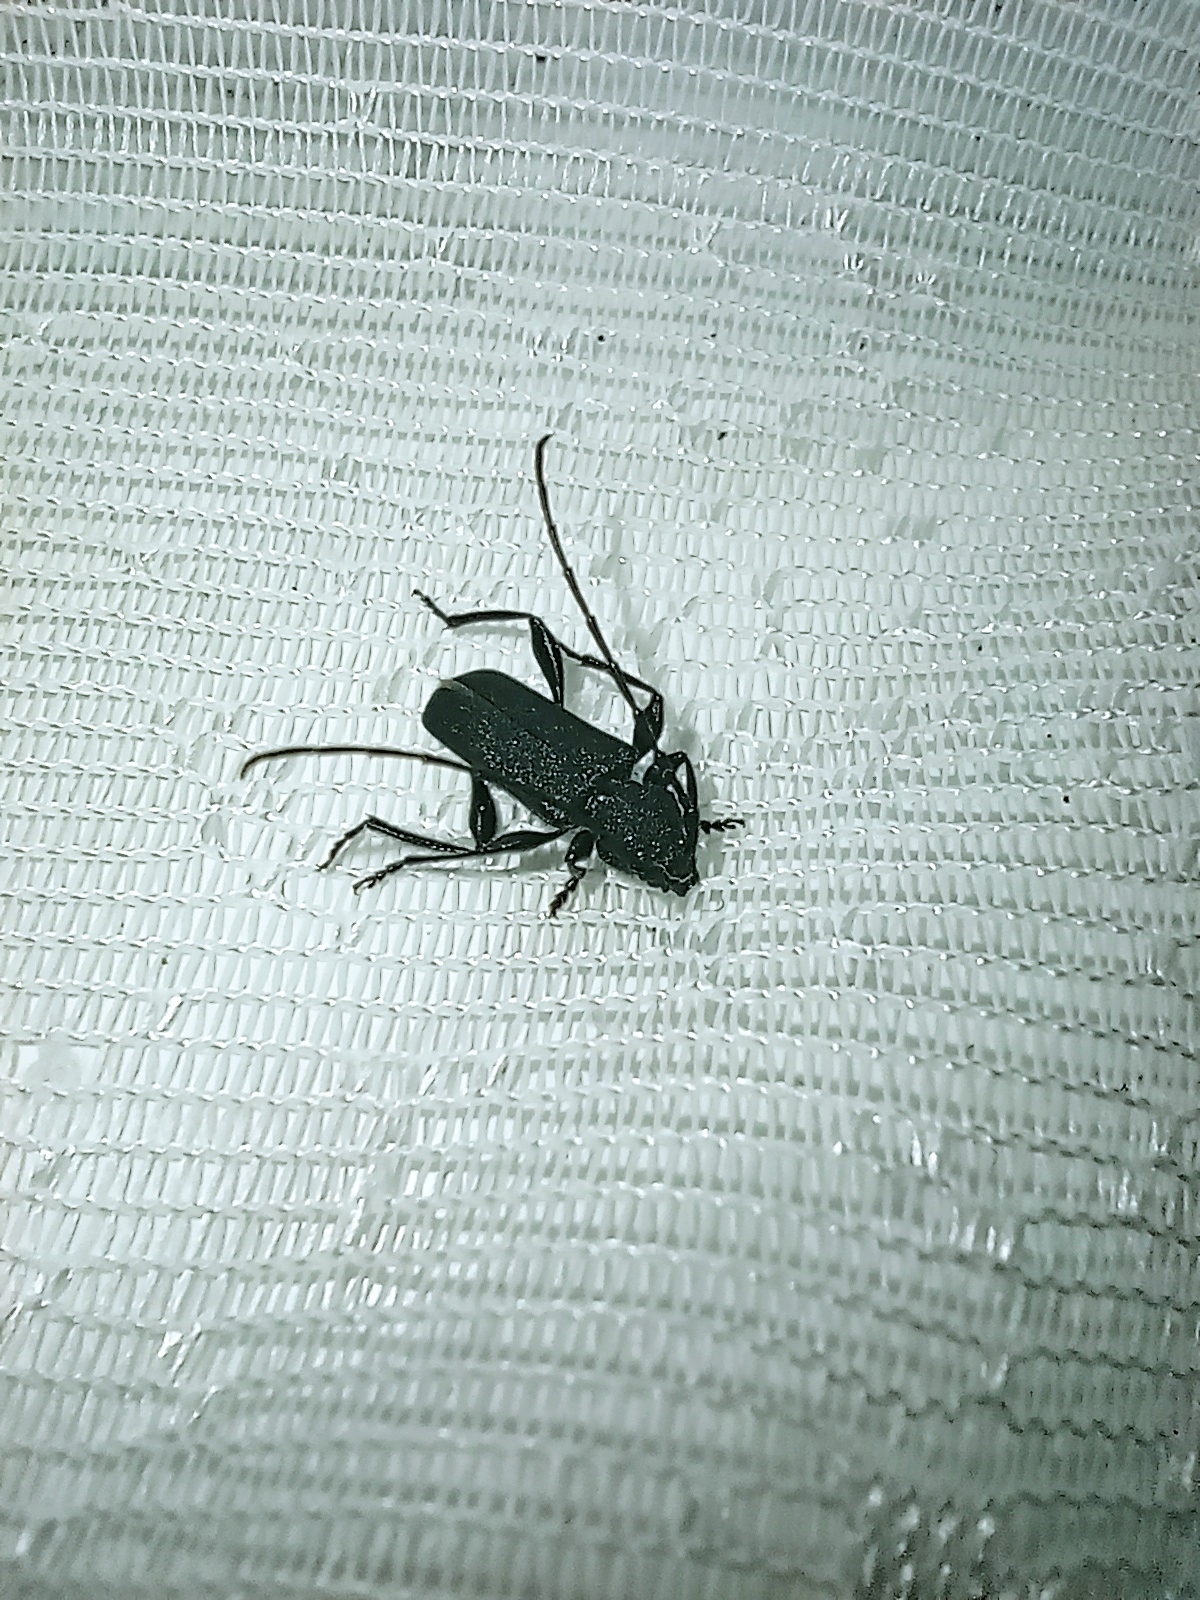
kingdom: Animalia
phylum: Arthropoda
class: Insecta
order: Coleoptera
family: Cerambycidae
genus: Ropalopus
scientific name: Ropalopus clavipes
